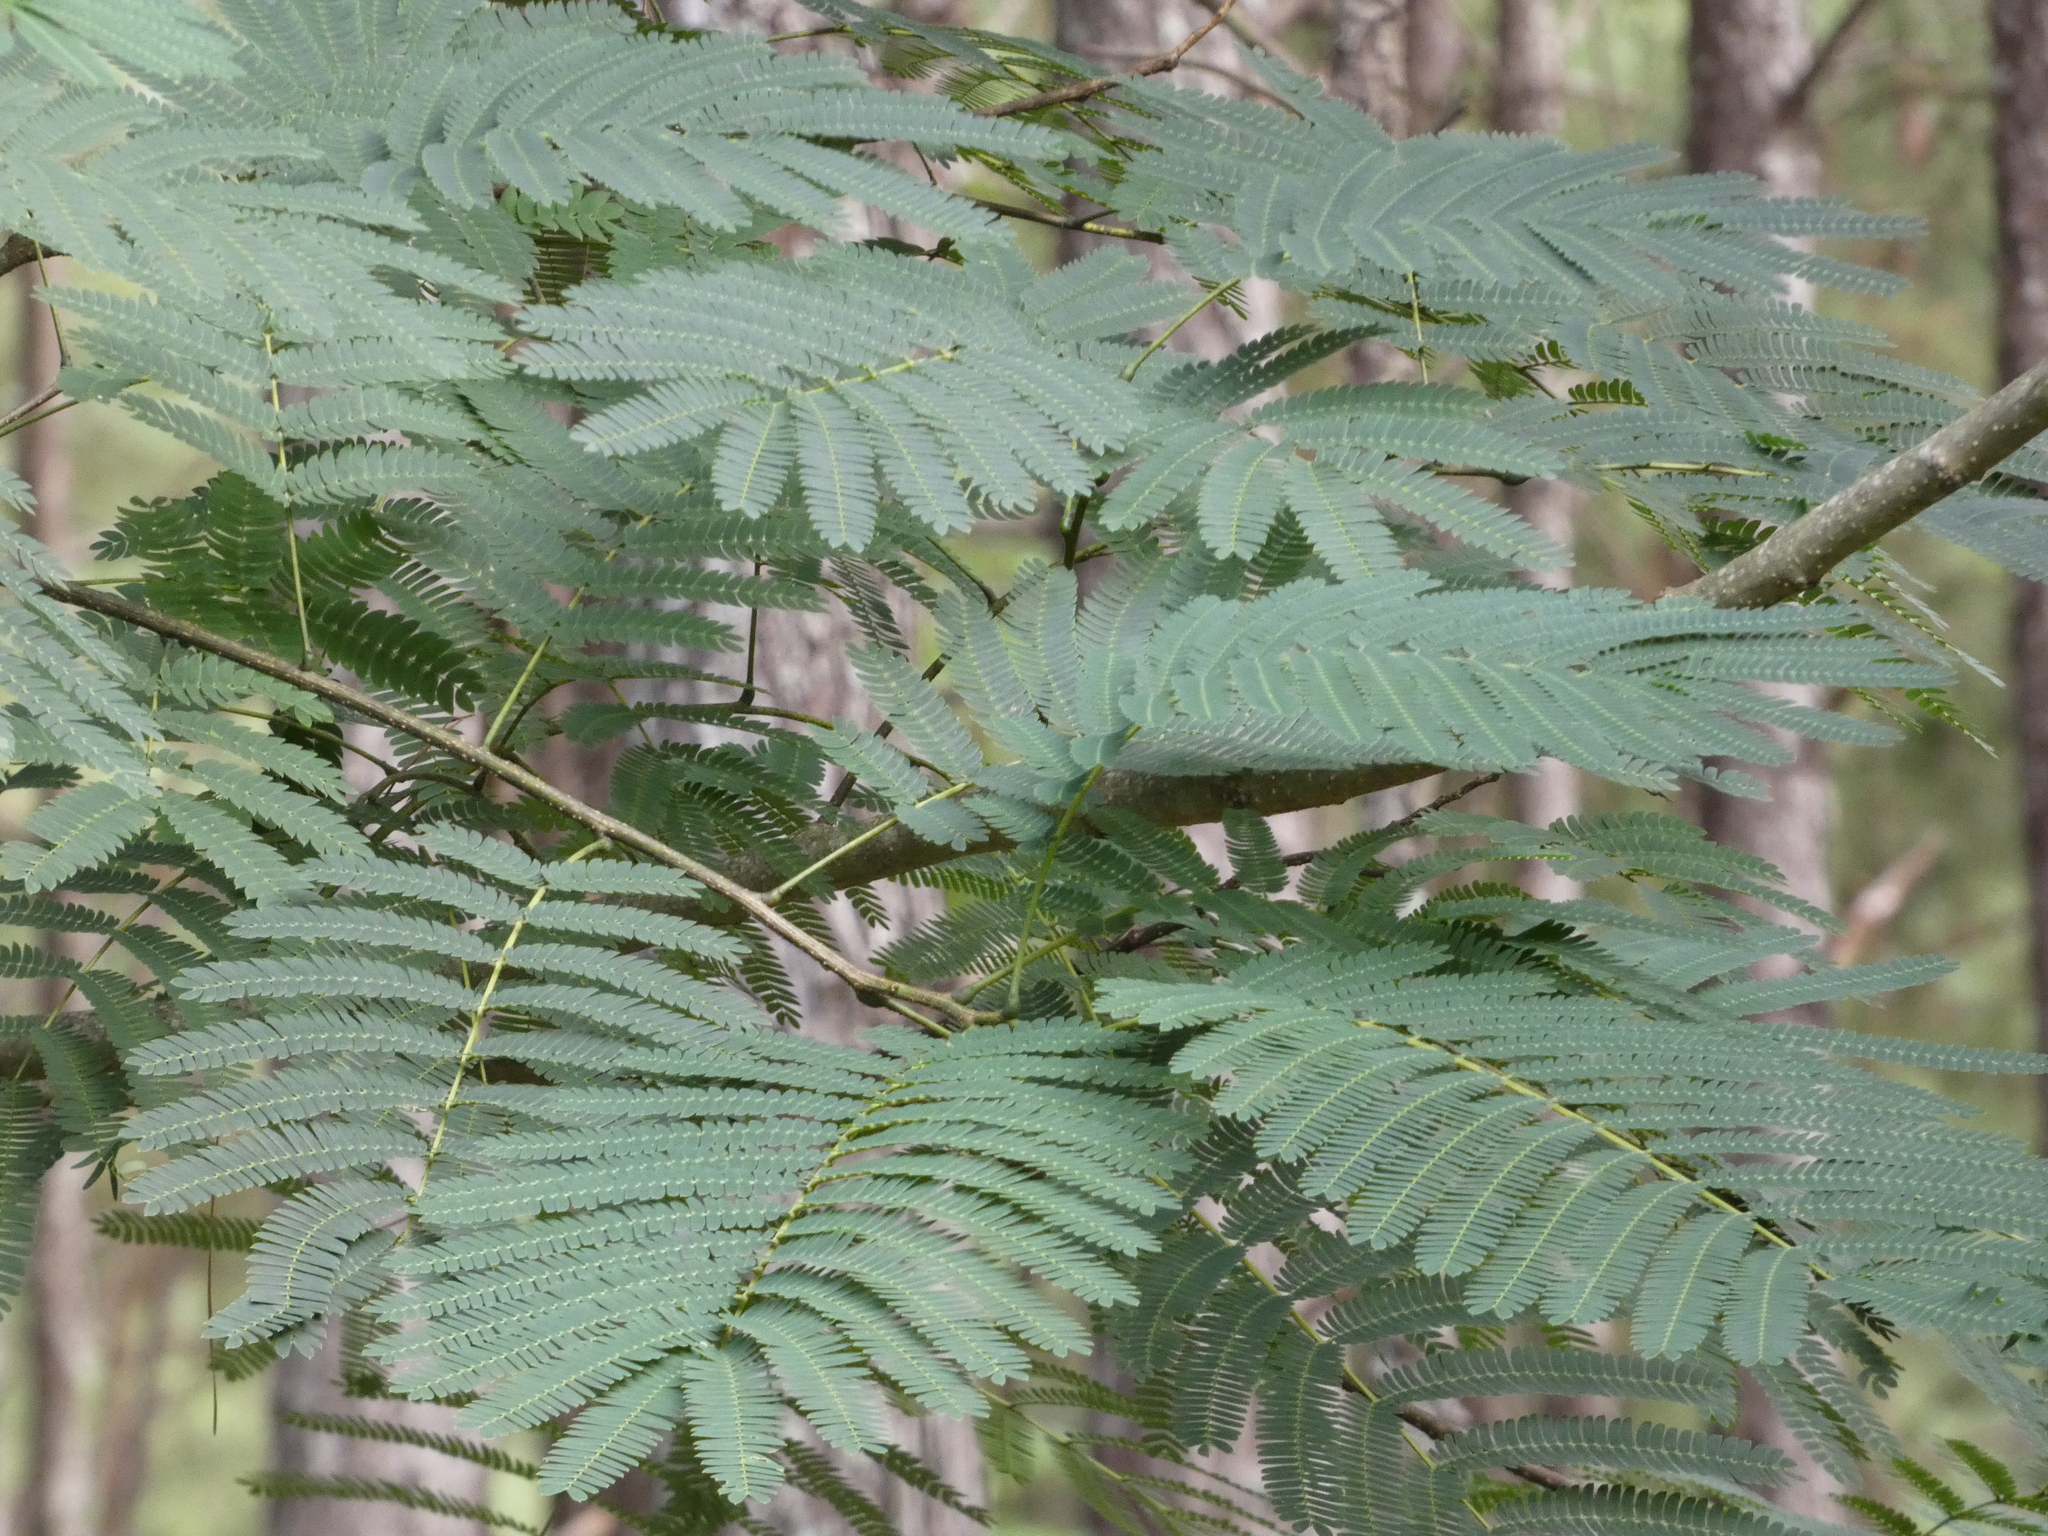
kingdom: Plantae
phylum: Tracheophyta
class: Magnoliopsida
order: Fabales
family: Fabaceae
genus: Albizia
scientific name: Albizia julibrissin
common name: Silktree
